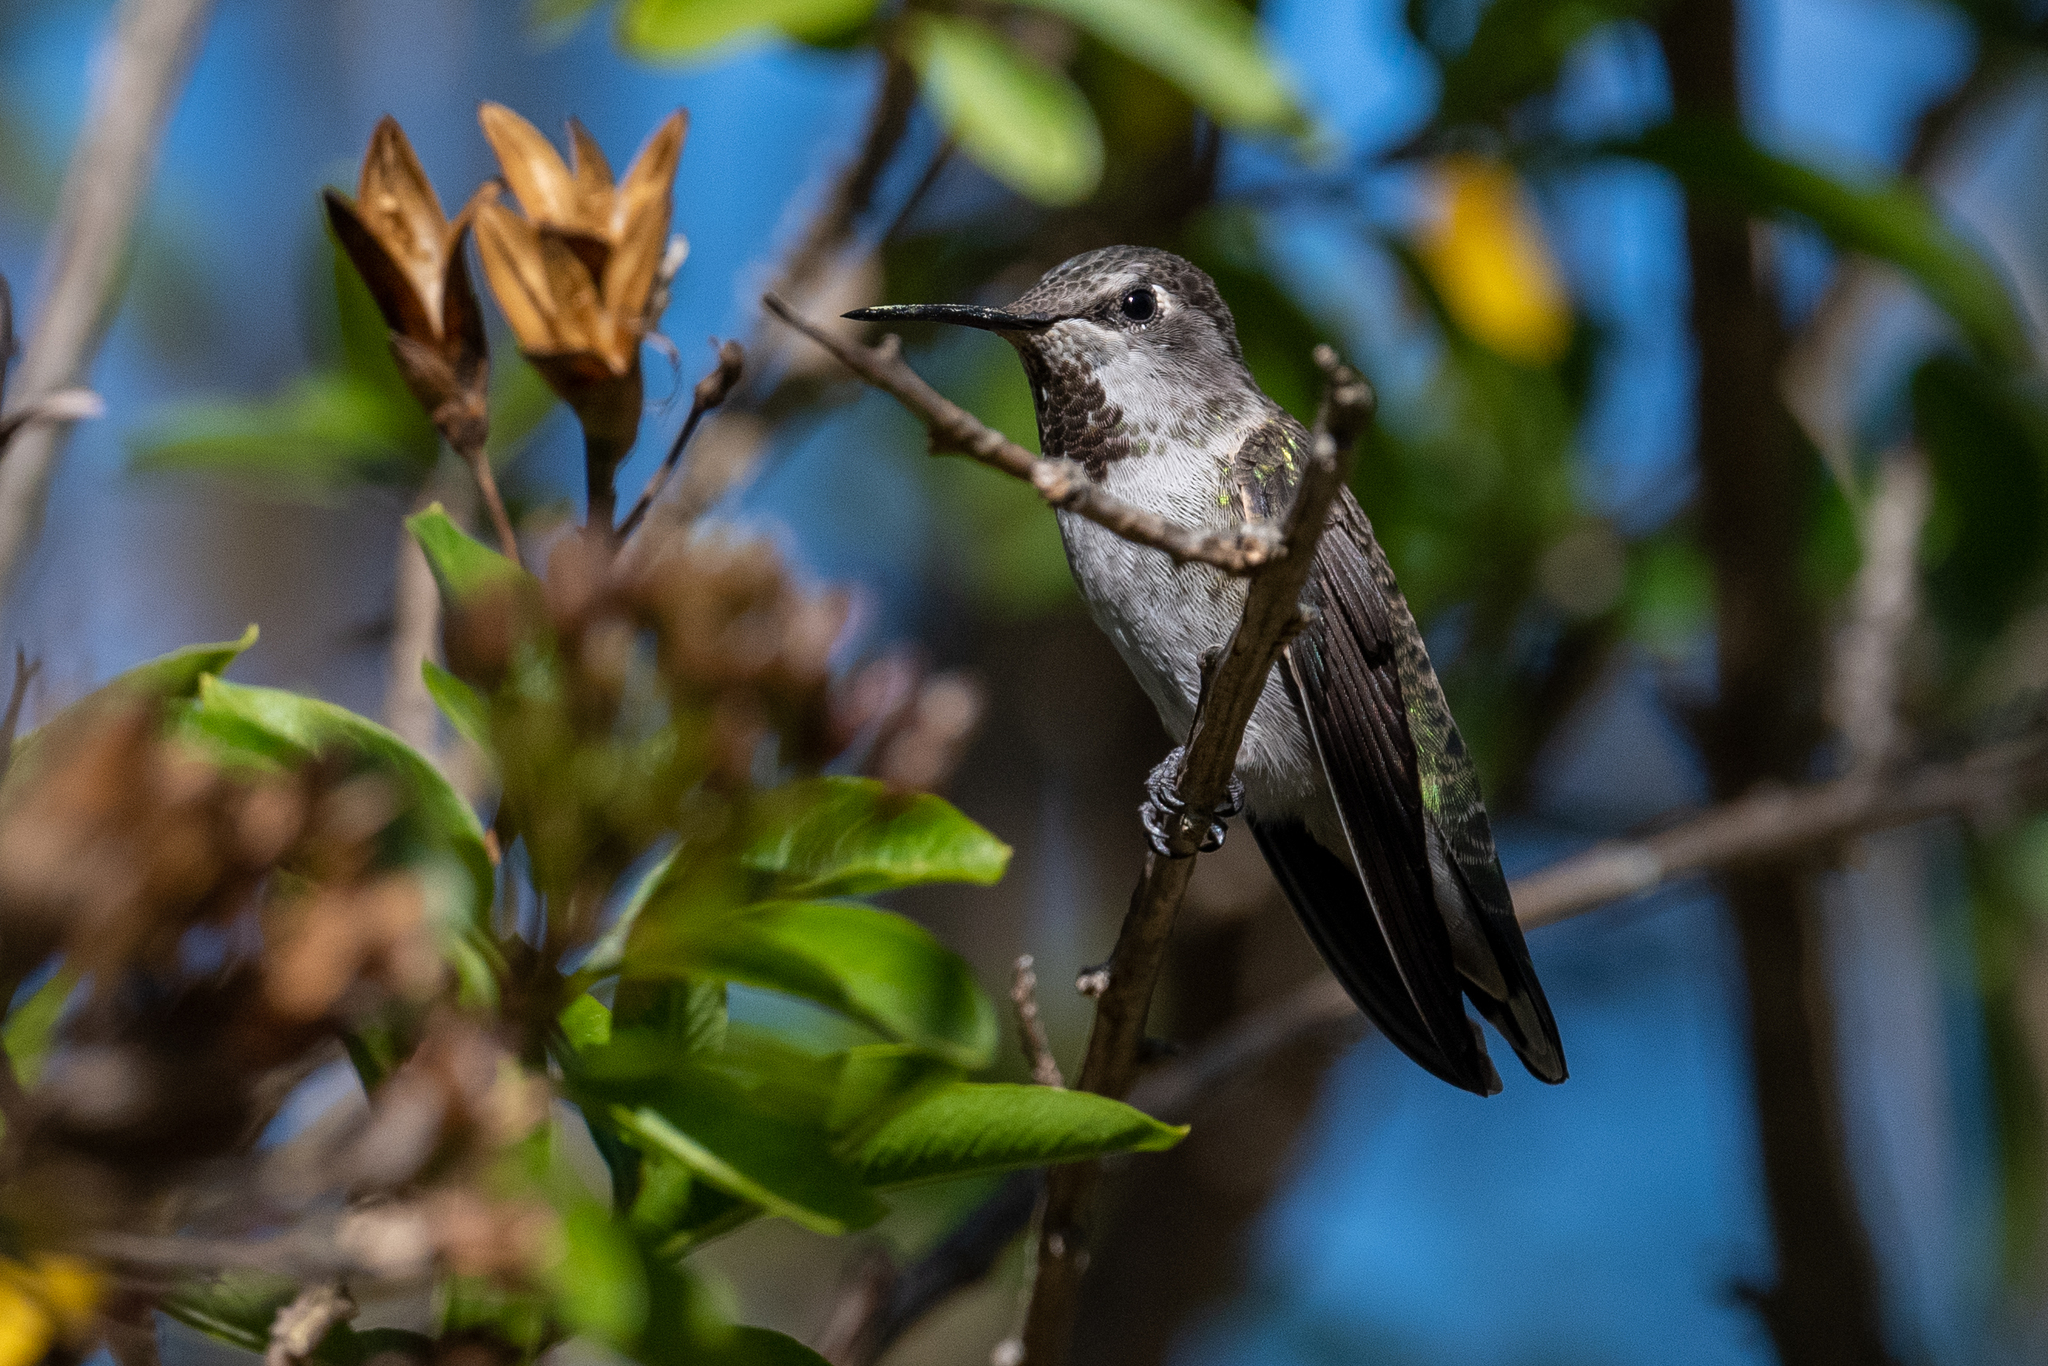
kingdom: Animalia
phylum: Chordata
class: Aves
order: Apodiformes
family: Trochilidae
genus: Calypte
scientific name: Calypte anna
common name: Anna's hummingbird
